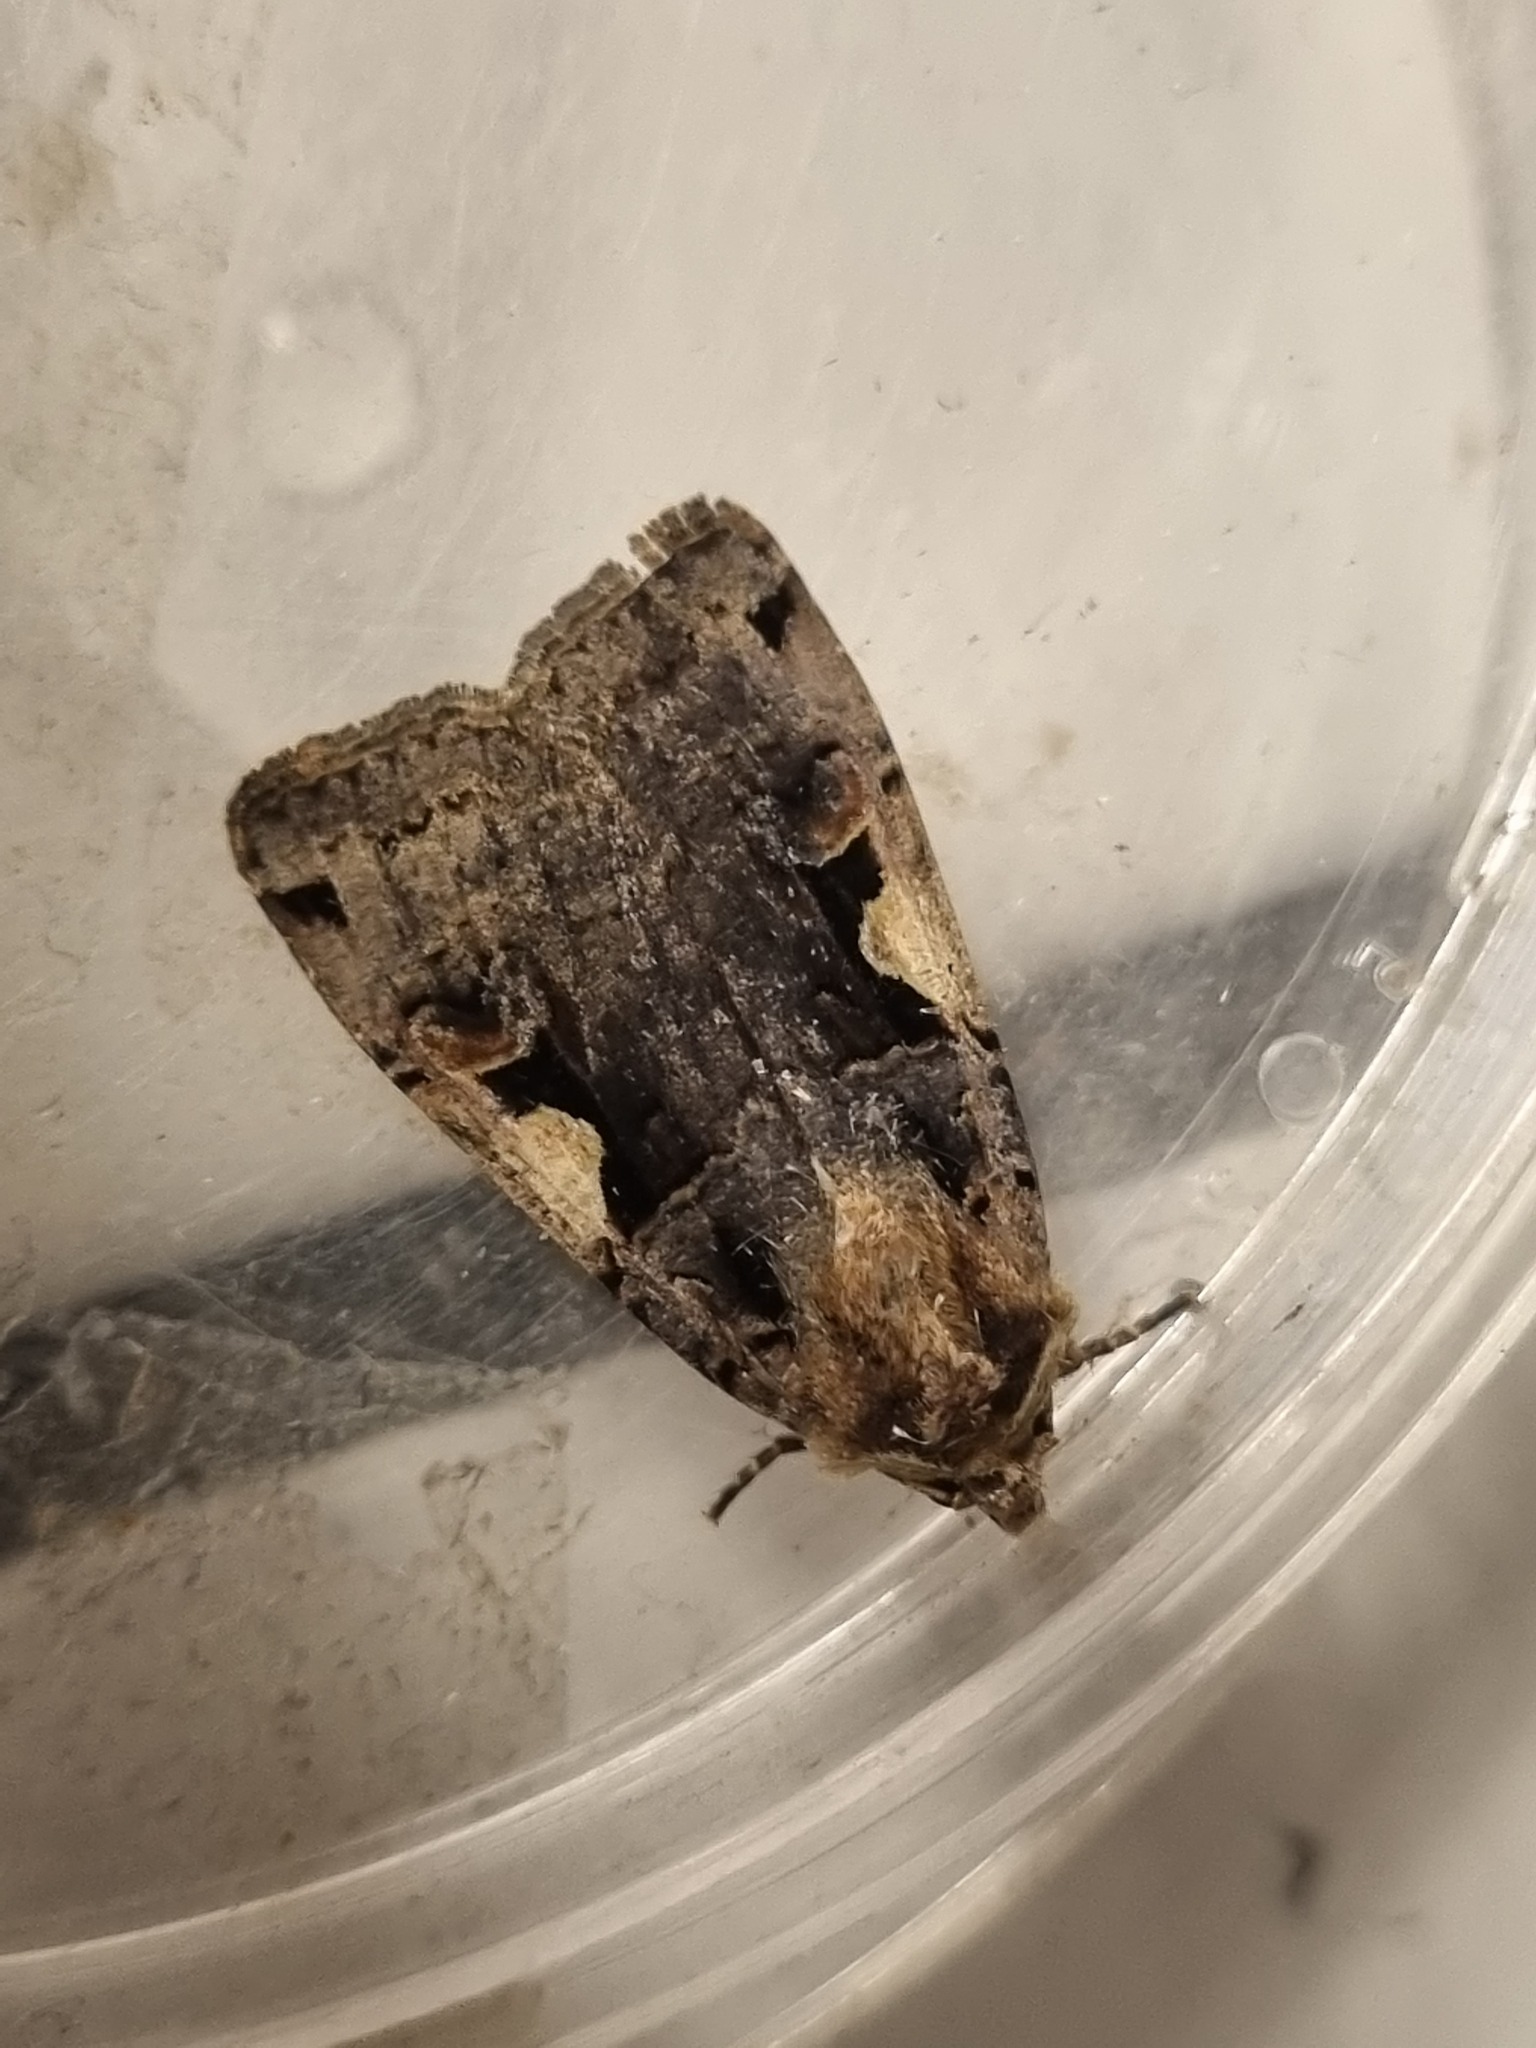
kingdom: Animalia
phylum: Arthropoda
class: Insecta
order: Lepidoptera
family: Noctuidae
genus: Xestia
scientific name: Xestia c-nigrum
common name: Setaceous hebrew character
